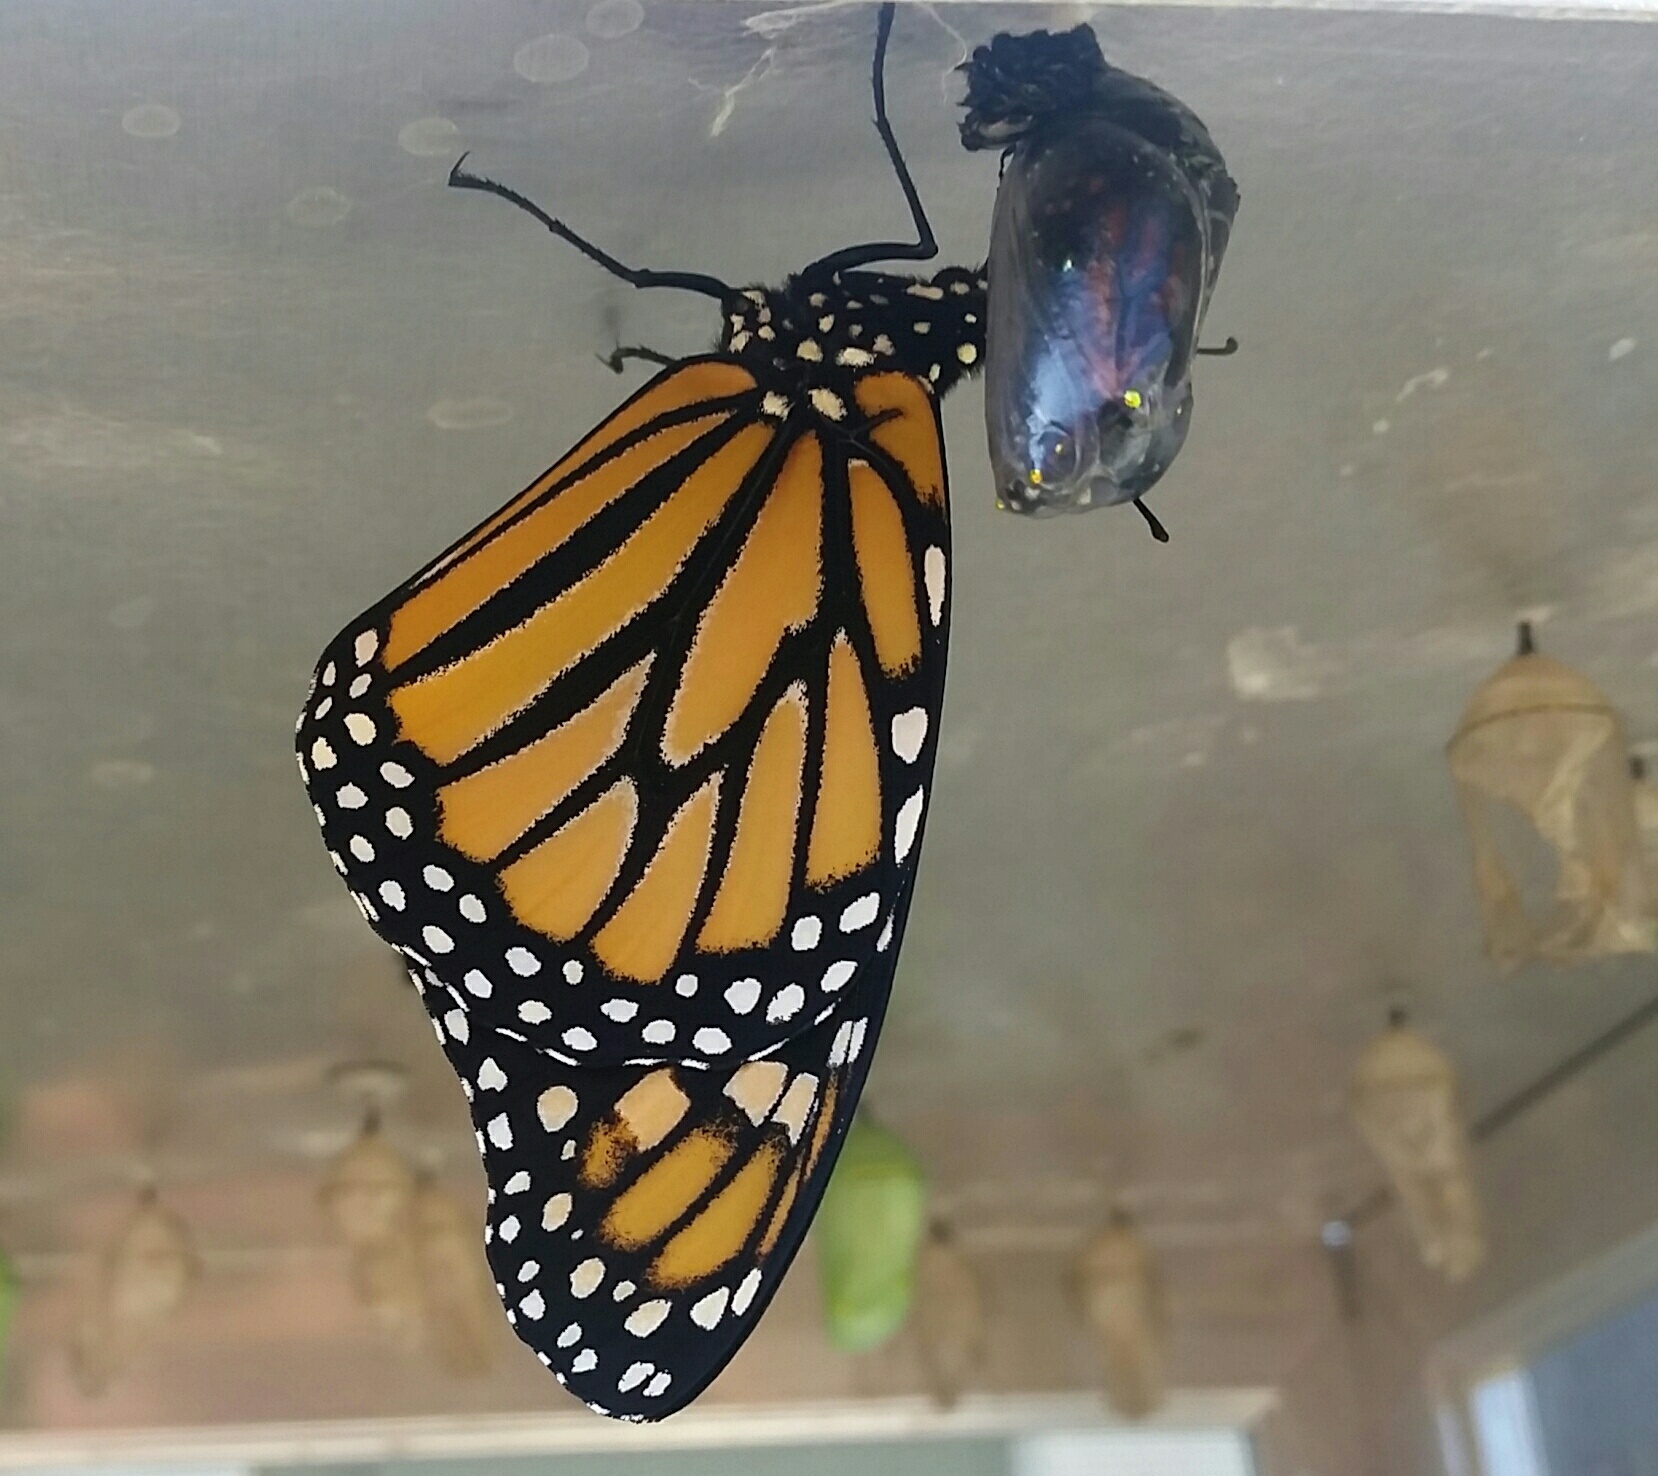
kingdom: Animalia
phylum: Arthropoda
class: Insecta
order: Lepidoptera
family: Nymphalidae
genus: Danaus
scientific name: Danaus plexippus
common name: Monarch
